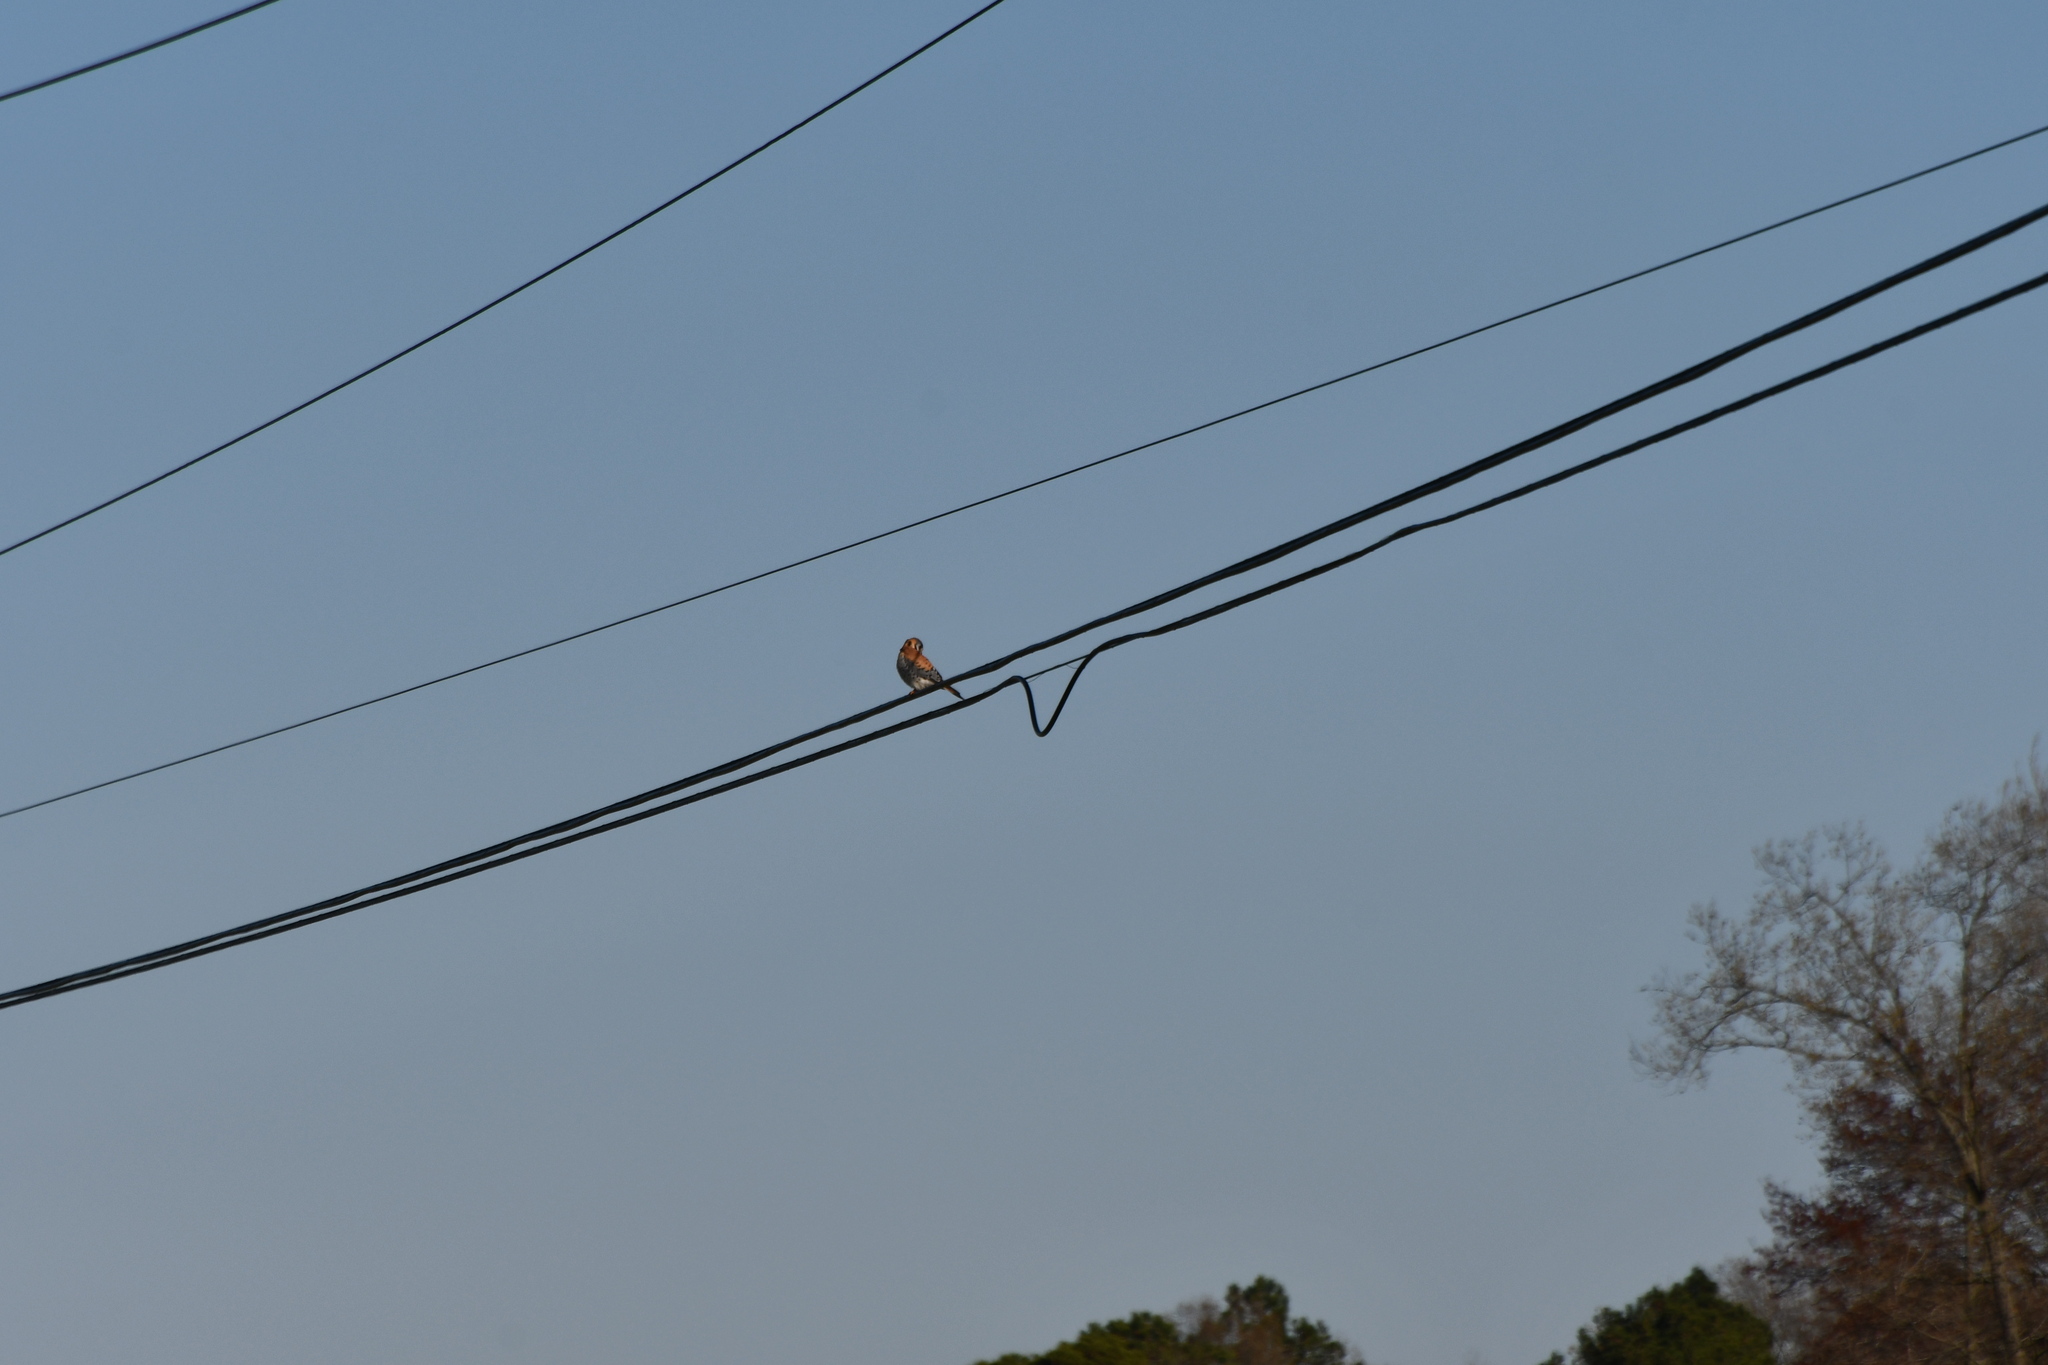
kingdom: Animalia
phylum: Chordata
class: Aves
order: Falconiformes
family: Falconidae
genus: Falco
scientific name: Falco sparverius
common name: American kestrel
